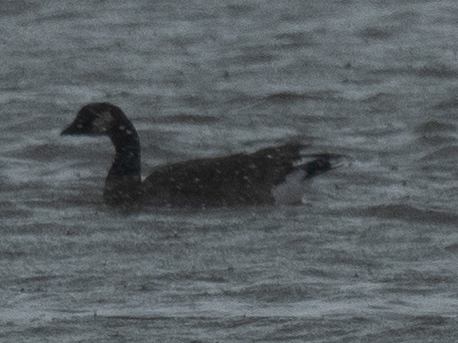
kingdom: Animalia
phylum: Chordata
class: Aves
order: Anseriformes
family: Anatidae
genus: Branta
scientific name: Branta hutchinsii
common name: Cackling goose
